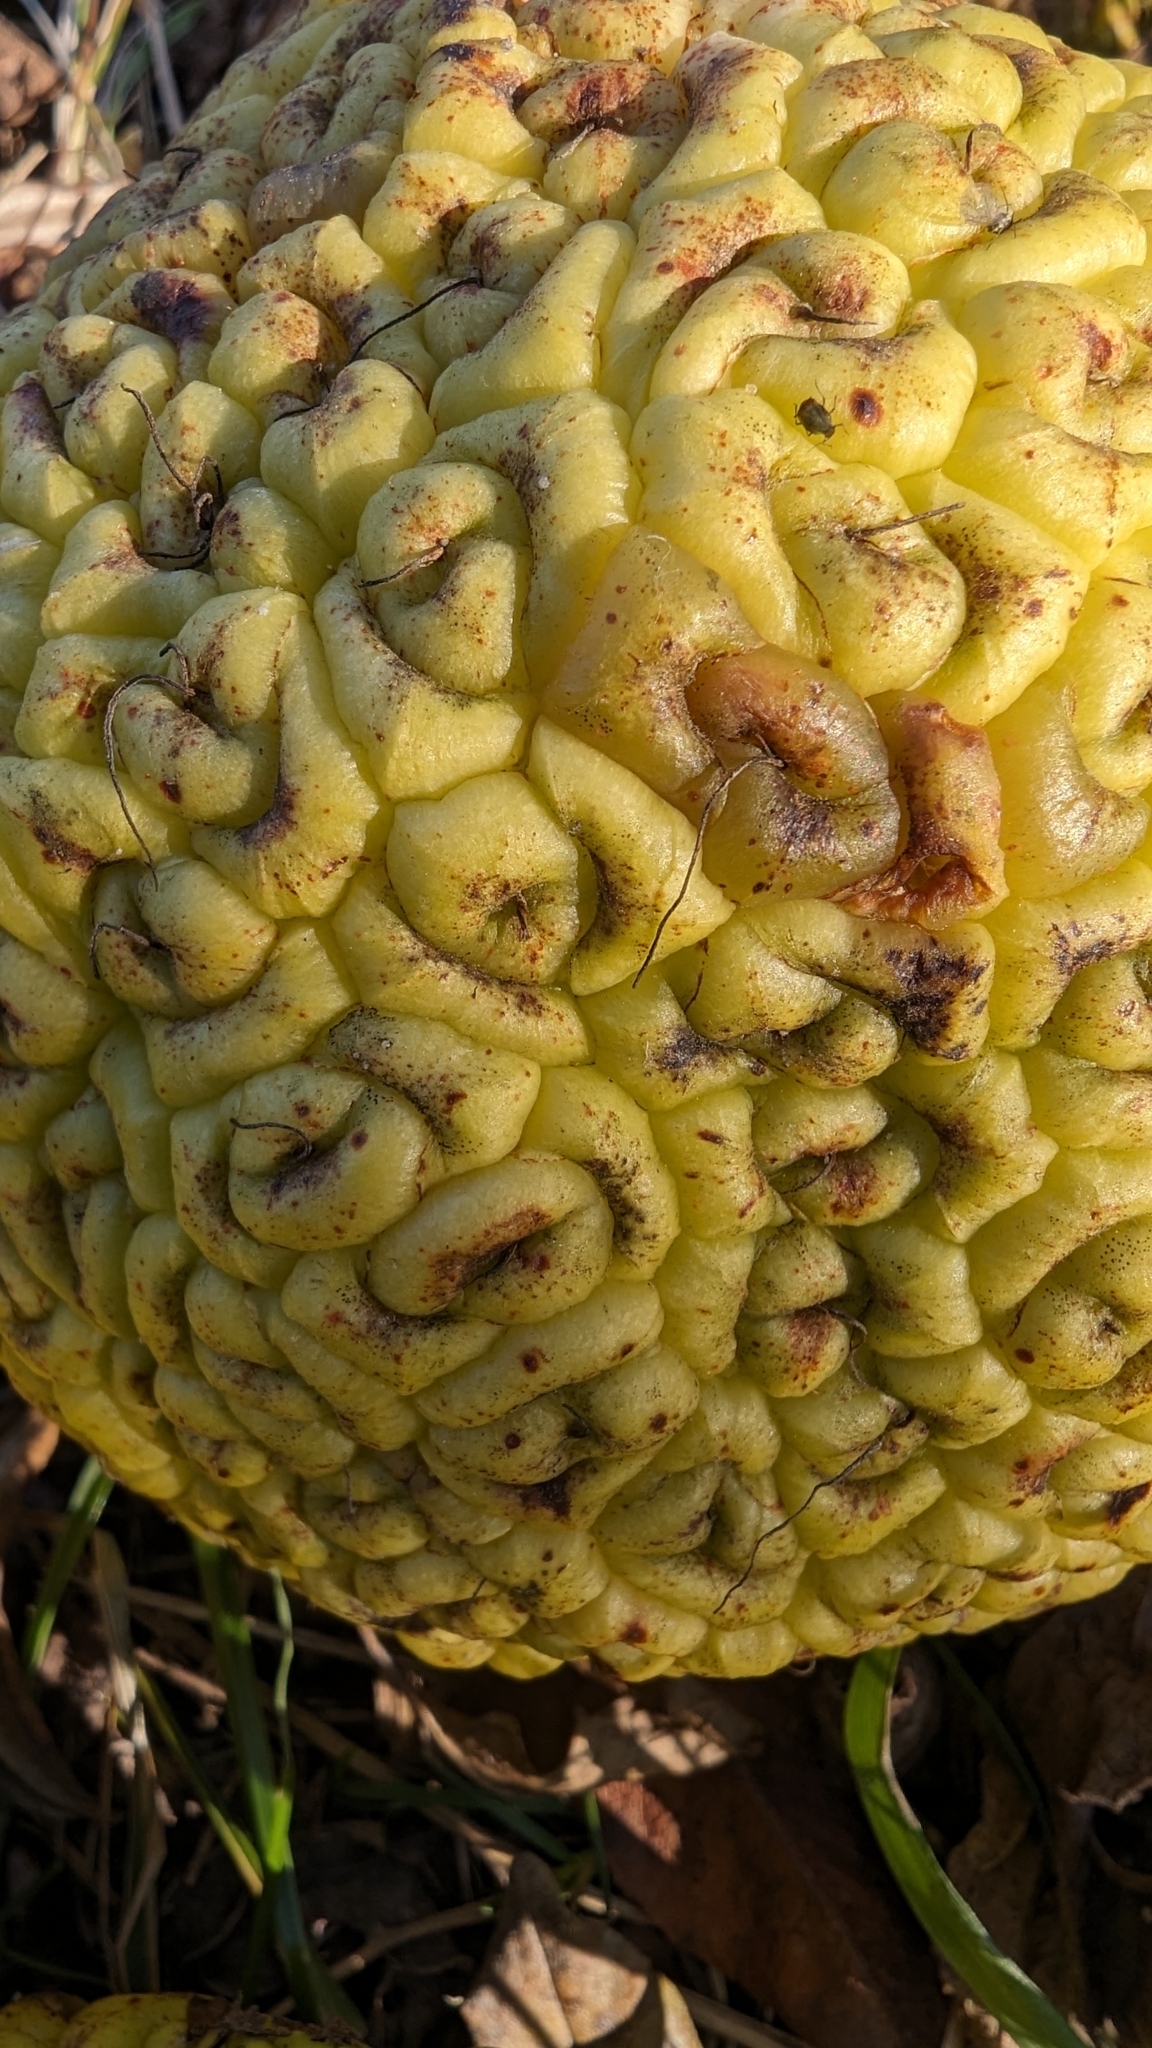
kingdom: Plantae
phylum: Tracheophyta
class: Magnoliopsida
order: Rosales
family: Moraceae
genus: Maclura
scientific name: Maclura pomifera
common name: Osage-orange
